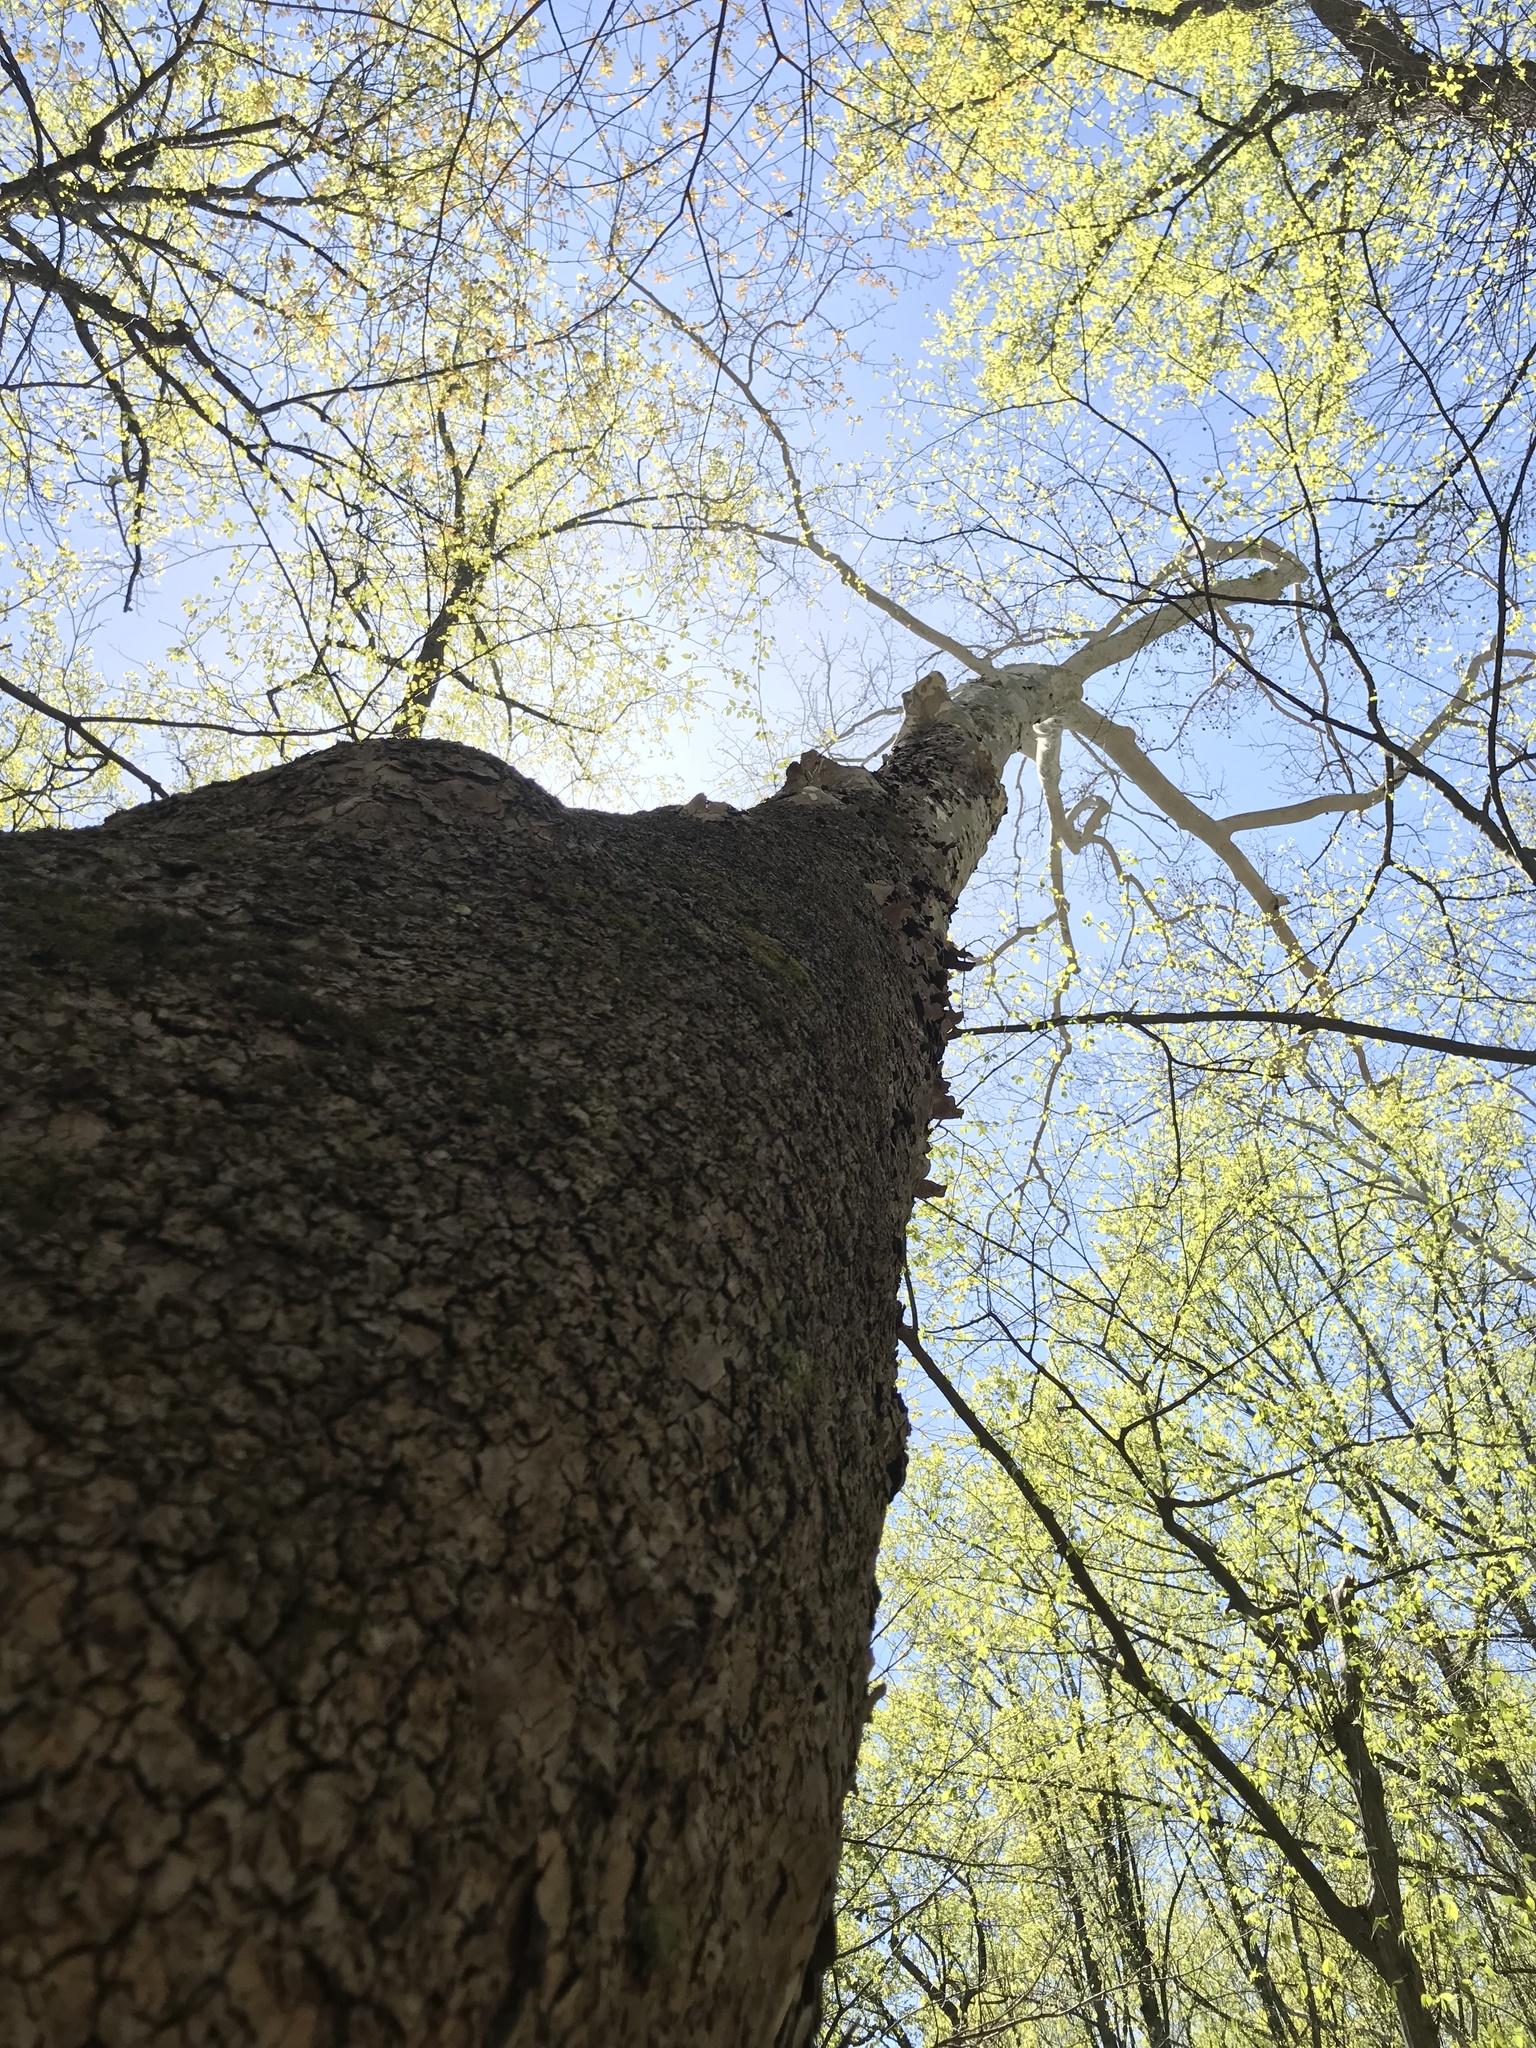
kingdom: Plantae
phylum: Tracheophyta
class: Magnoliopsida
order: Proteales
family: Platanaceae
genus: Platanus
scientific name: Platanus occidentalis
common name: American sycamore
